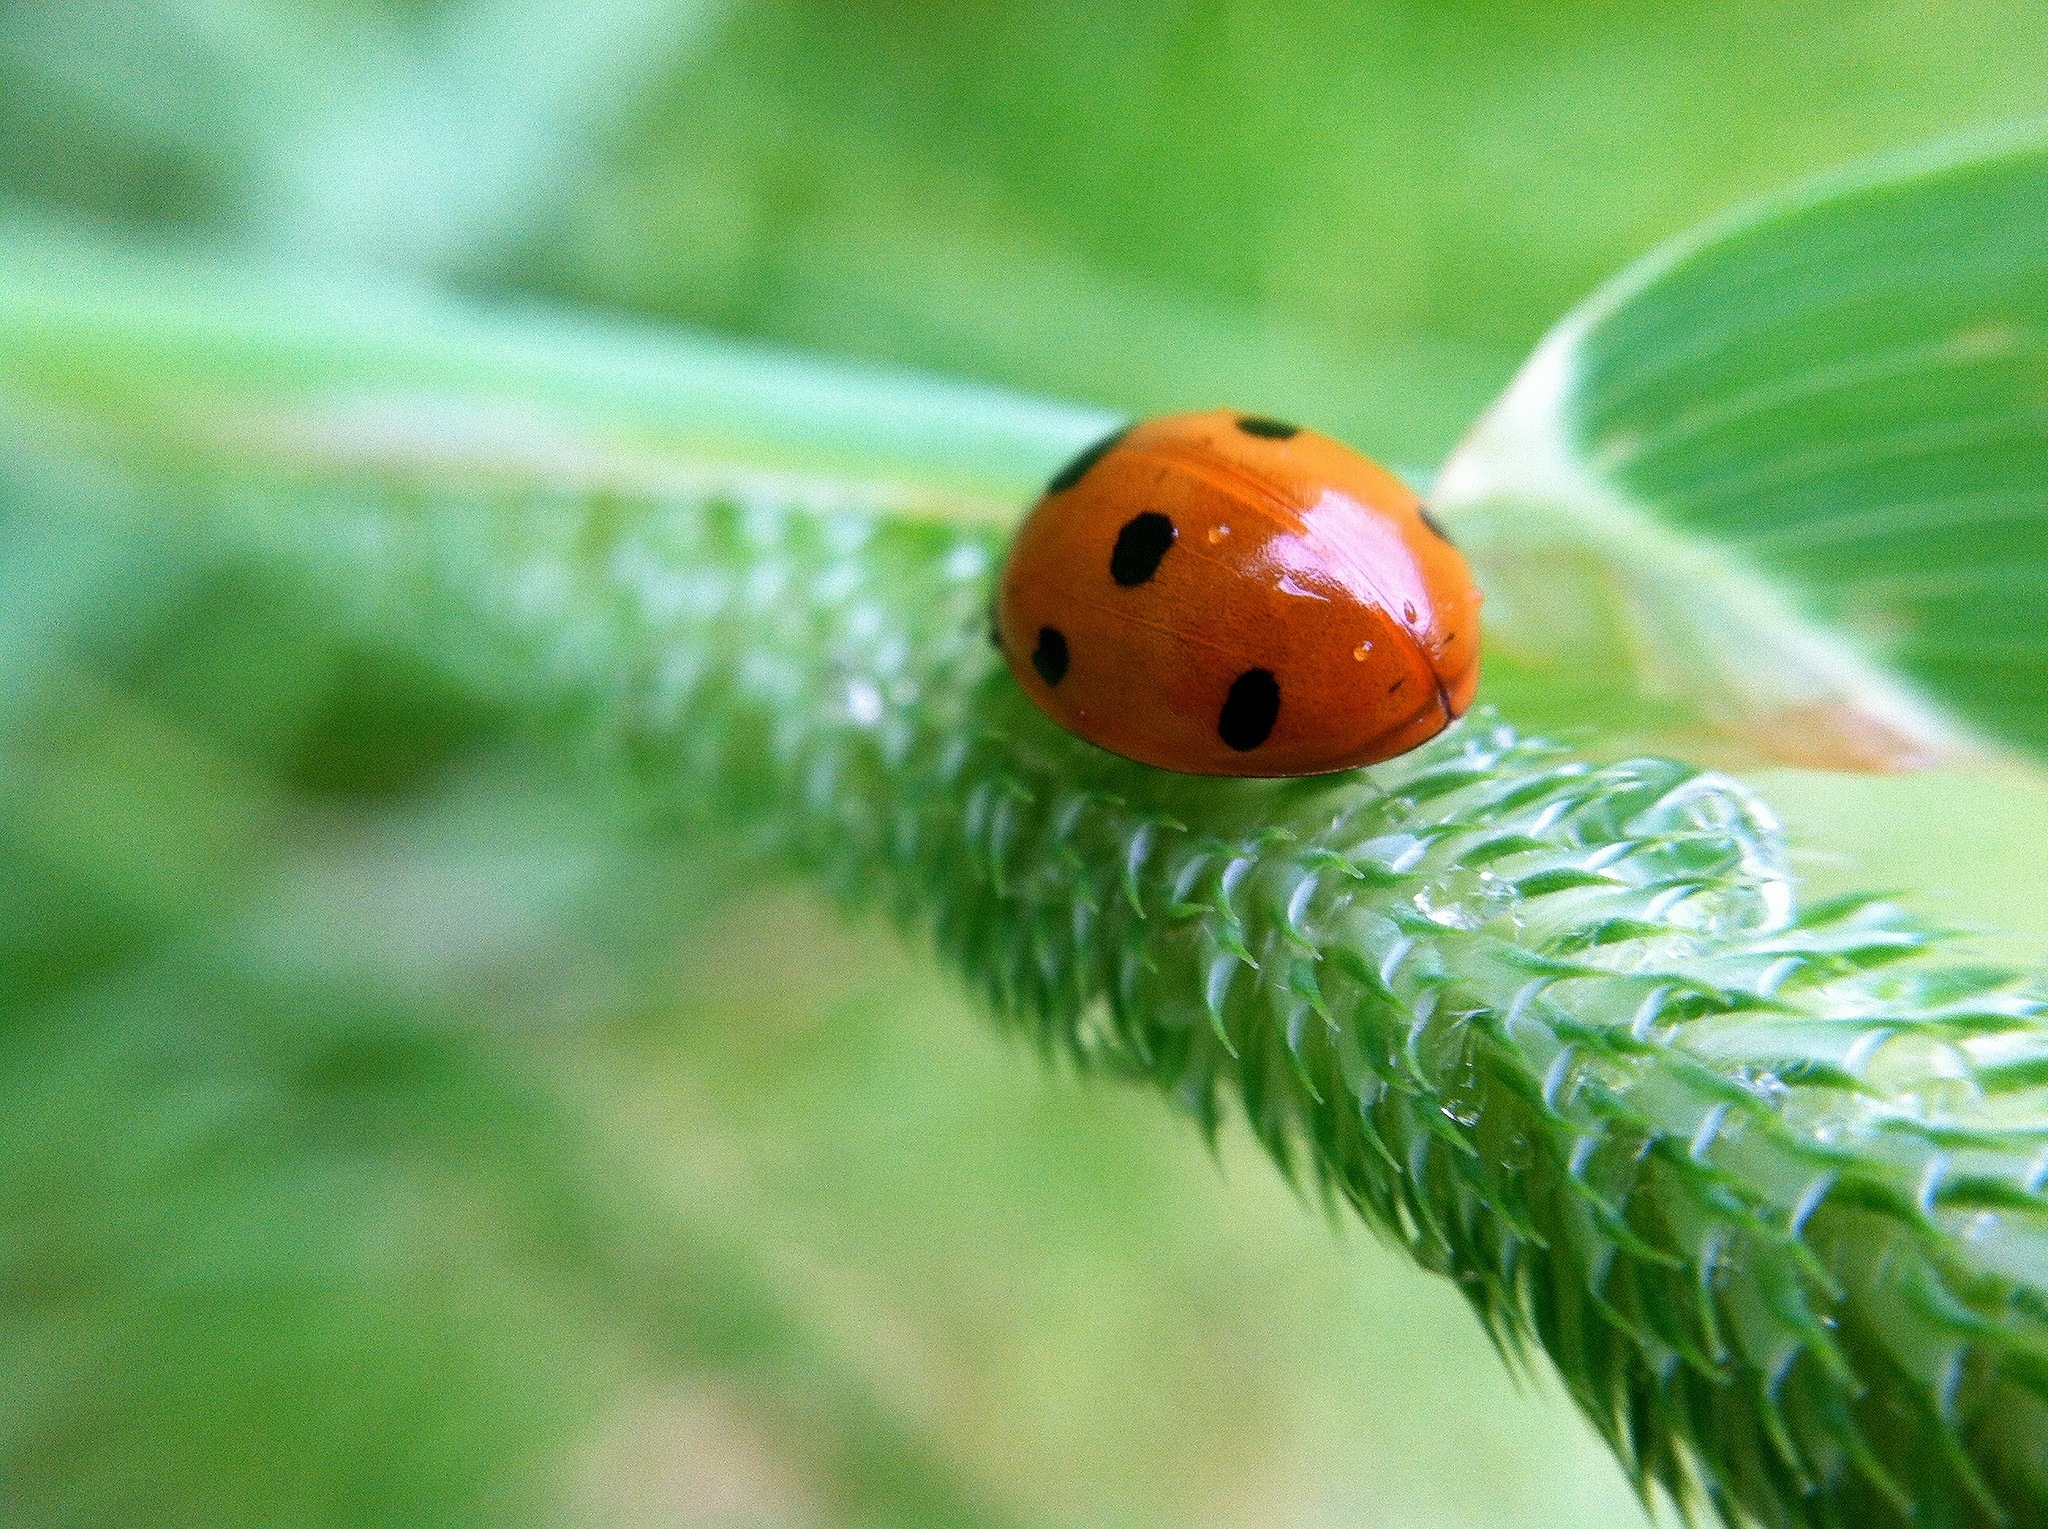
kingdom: Animalia
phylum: Arthropoda
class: Insecta
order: Coleoptera
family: Coccinellidae
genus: Coccinella
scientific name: Coccinella septempunctata
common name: Sevenspotted lady beetle
